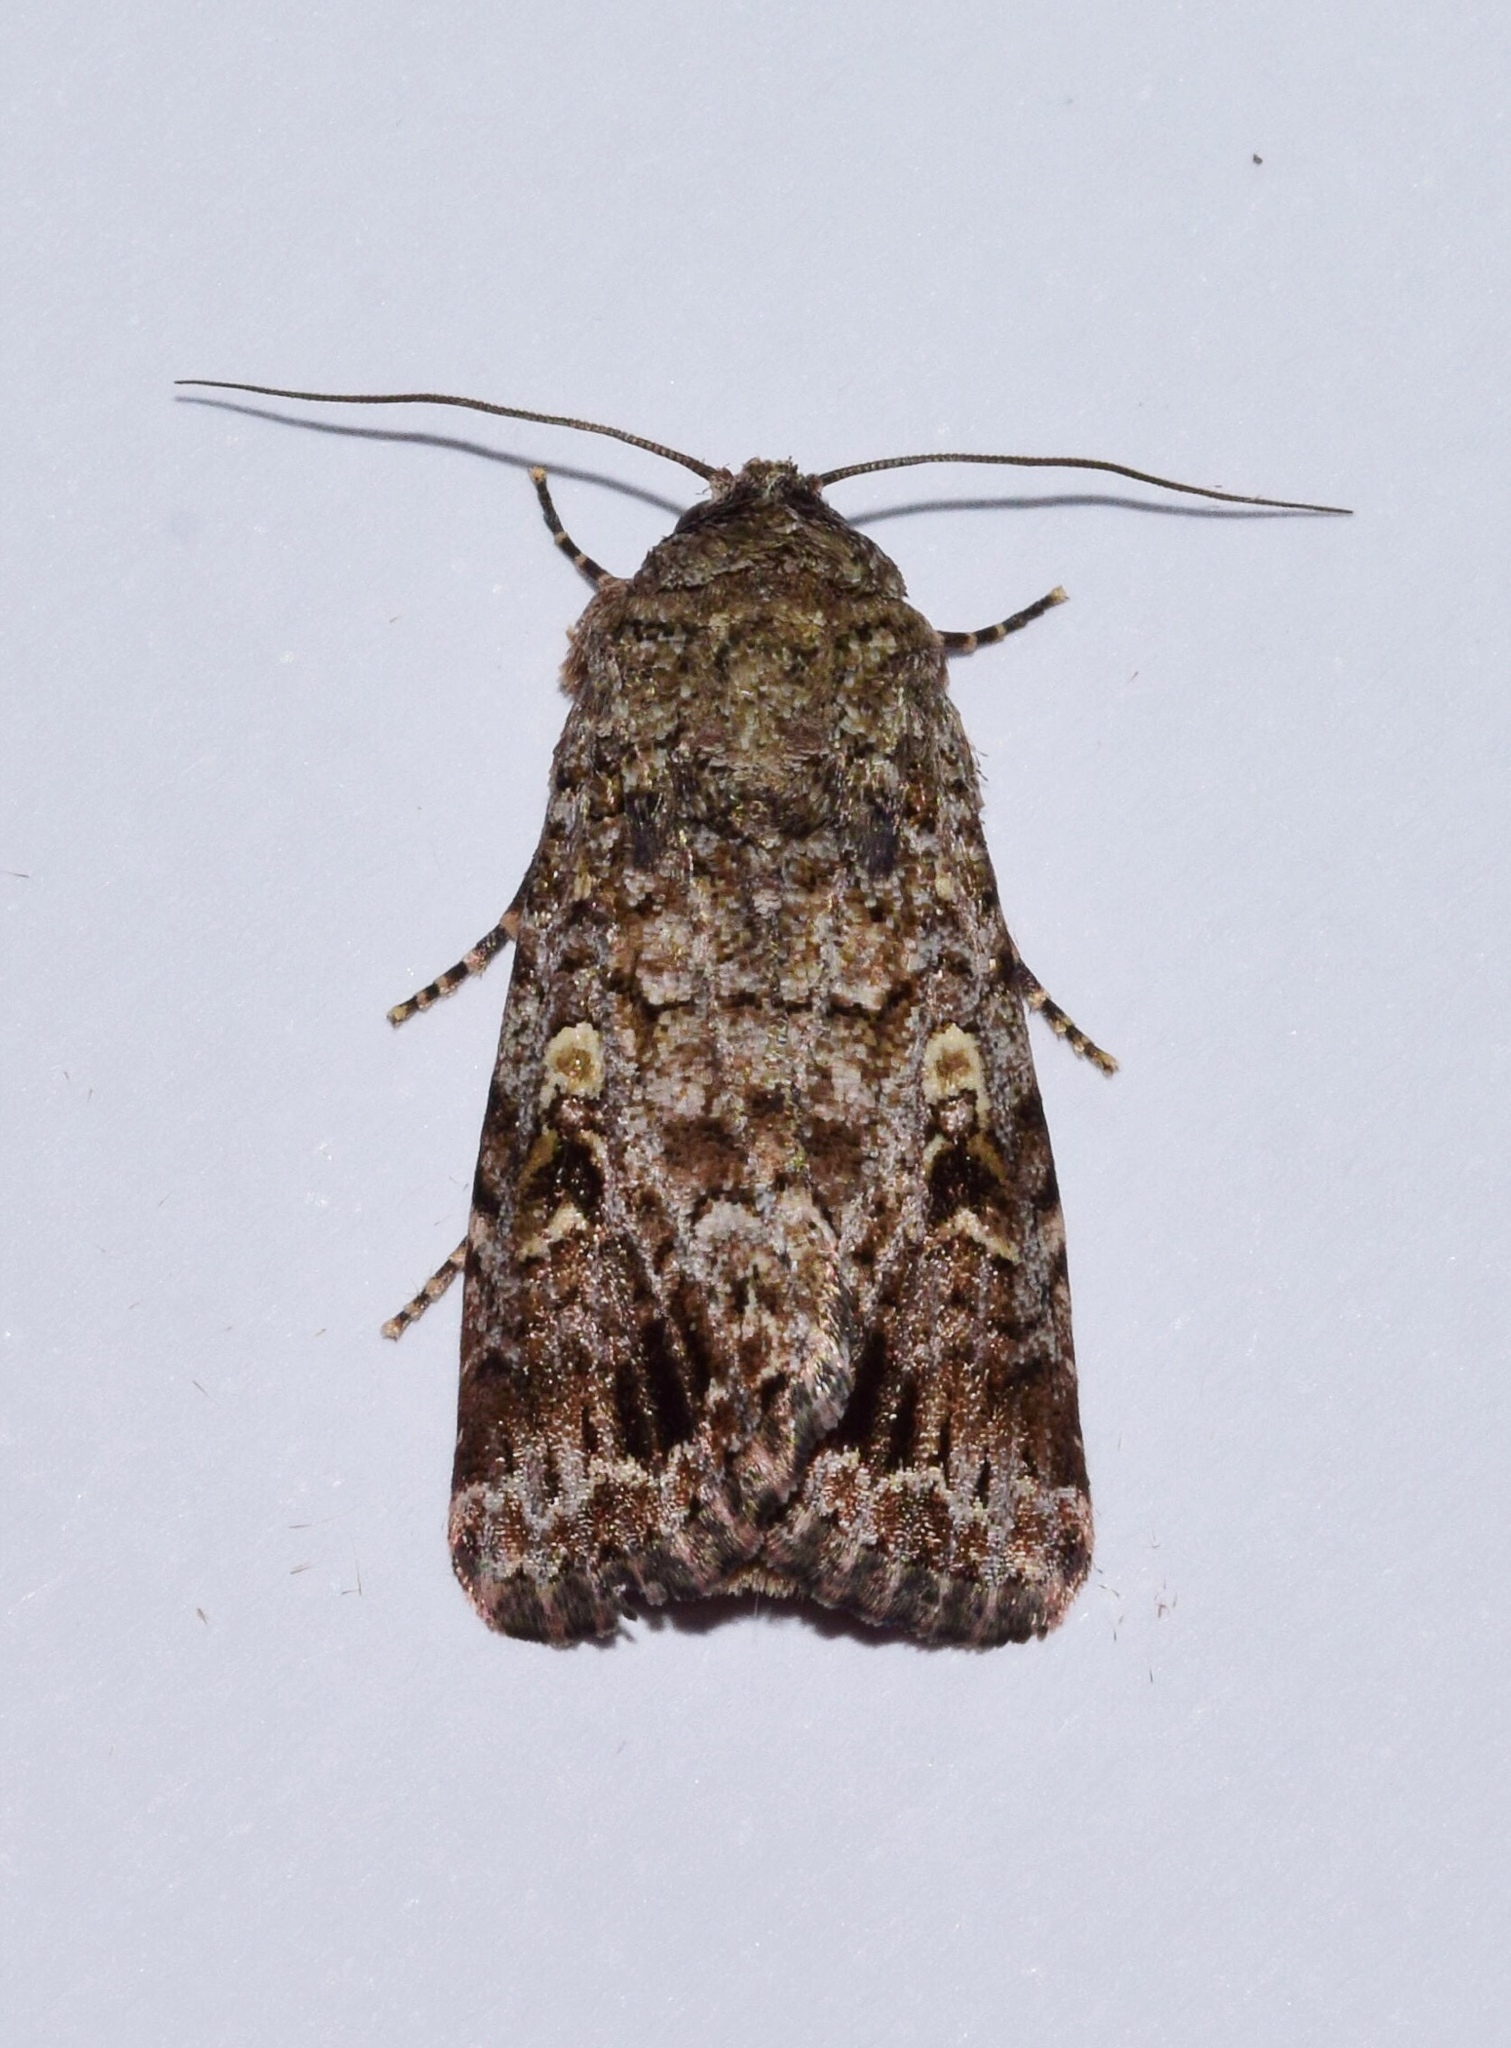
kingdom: Animalia
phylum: Arthropoda
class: Insecta
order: Lepidoptera
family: Noctuidae
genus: Spodoptera
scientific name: Spodoptera triturata
